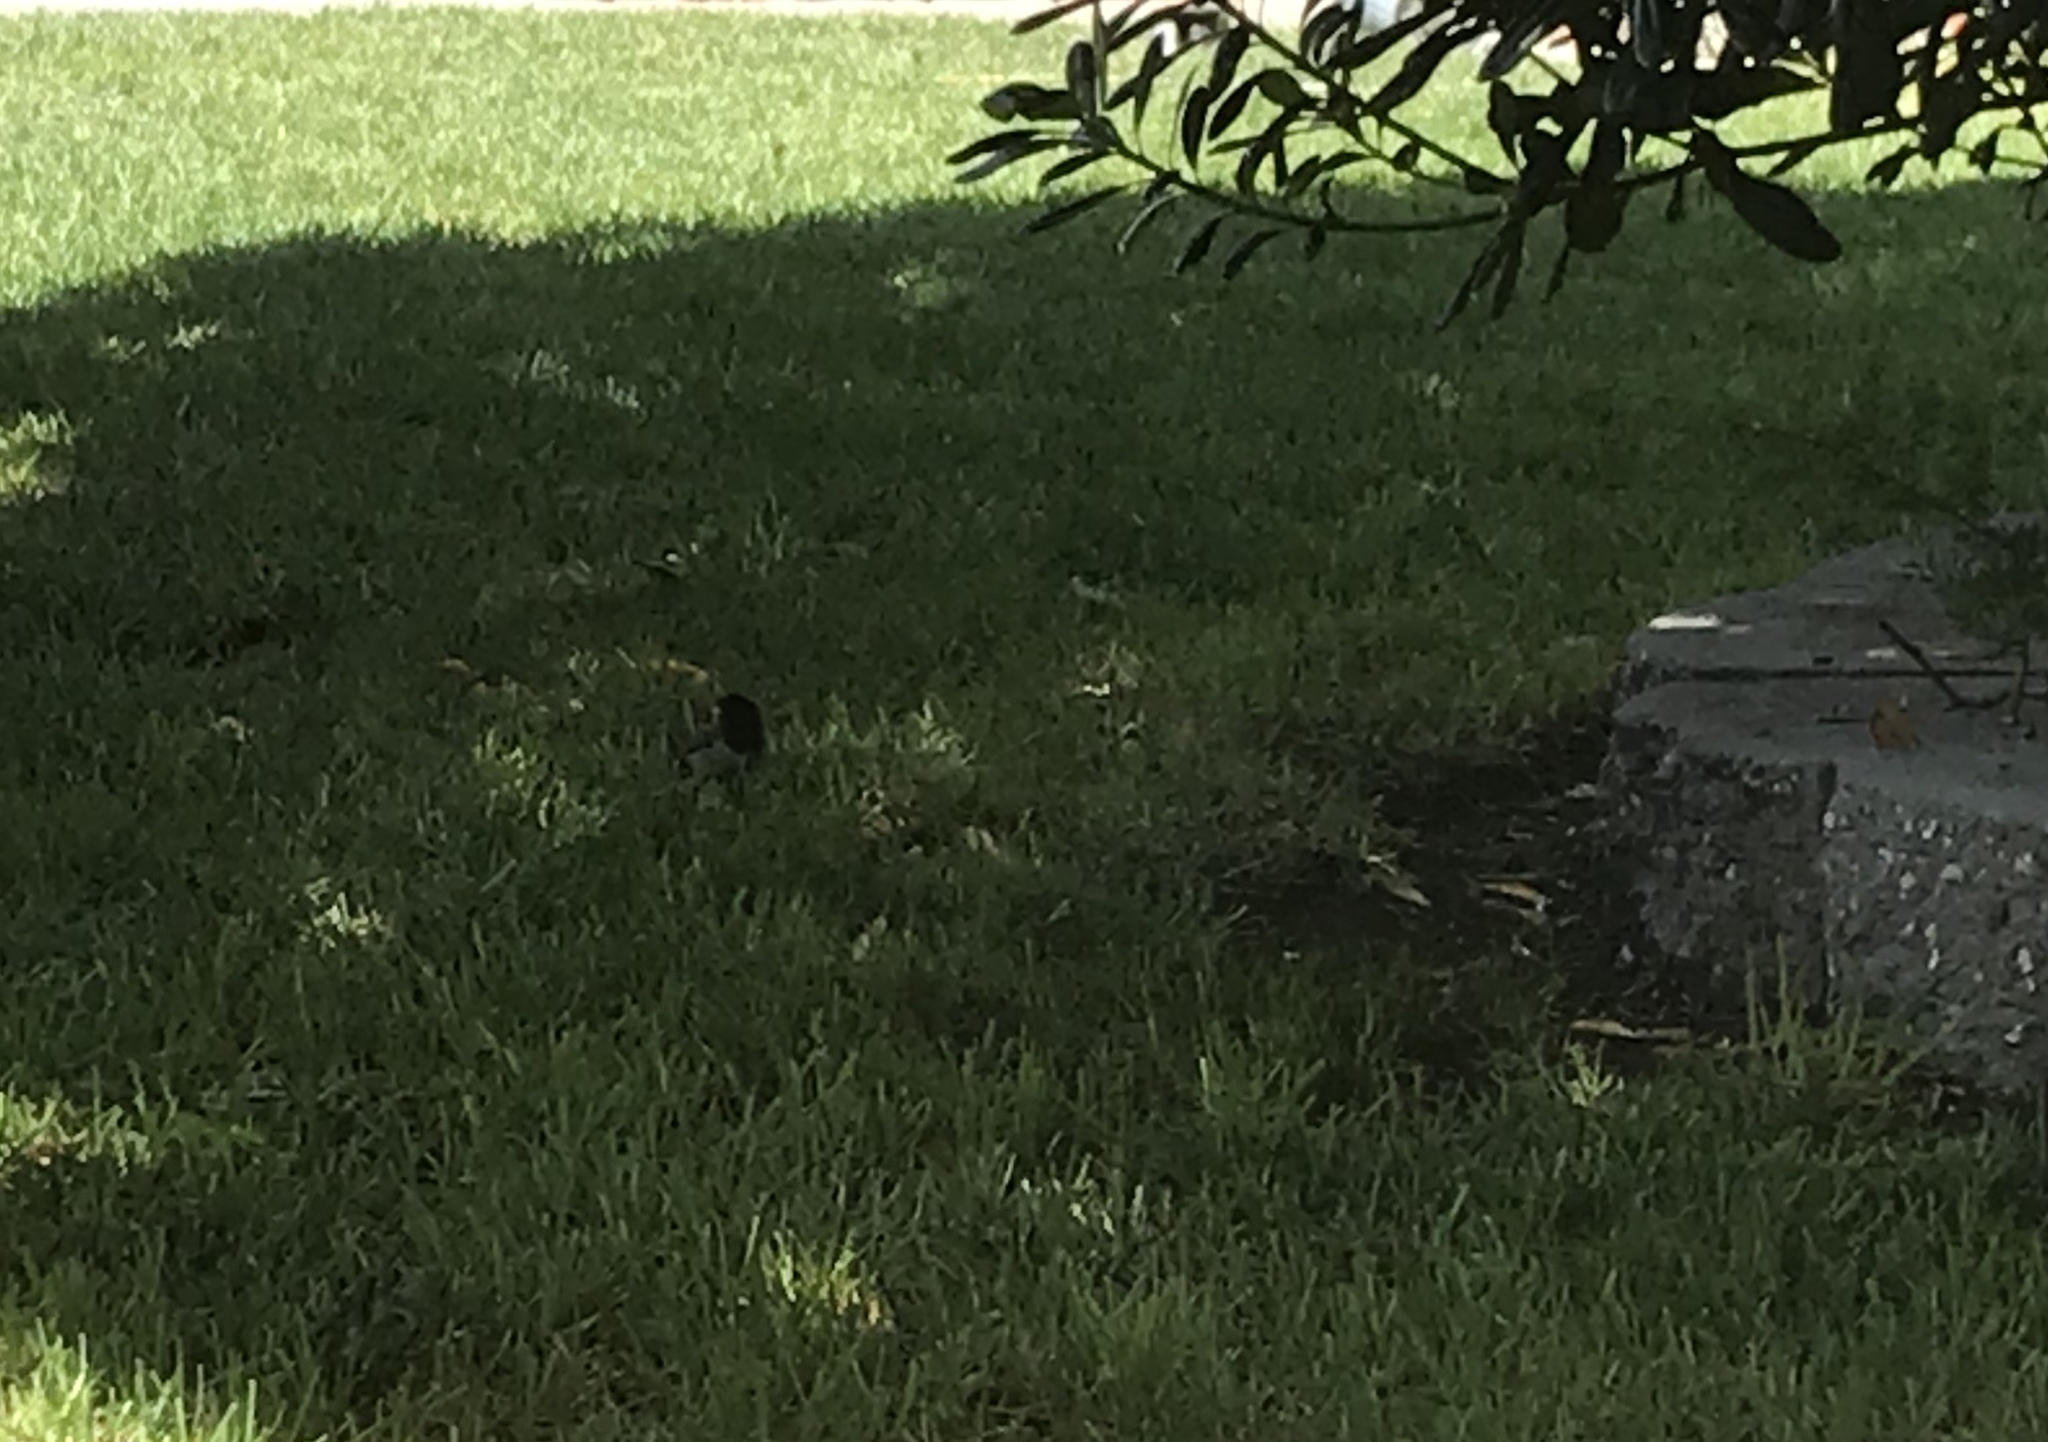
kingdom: Animalia
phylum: Chordata
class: Aves
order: Passeriformes
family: Passerellidae
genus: Junco
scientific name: Junco hyemalis
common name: Dark-eyed junco
